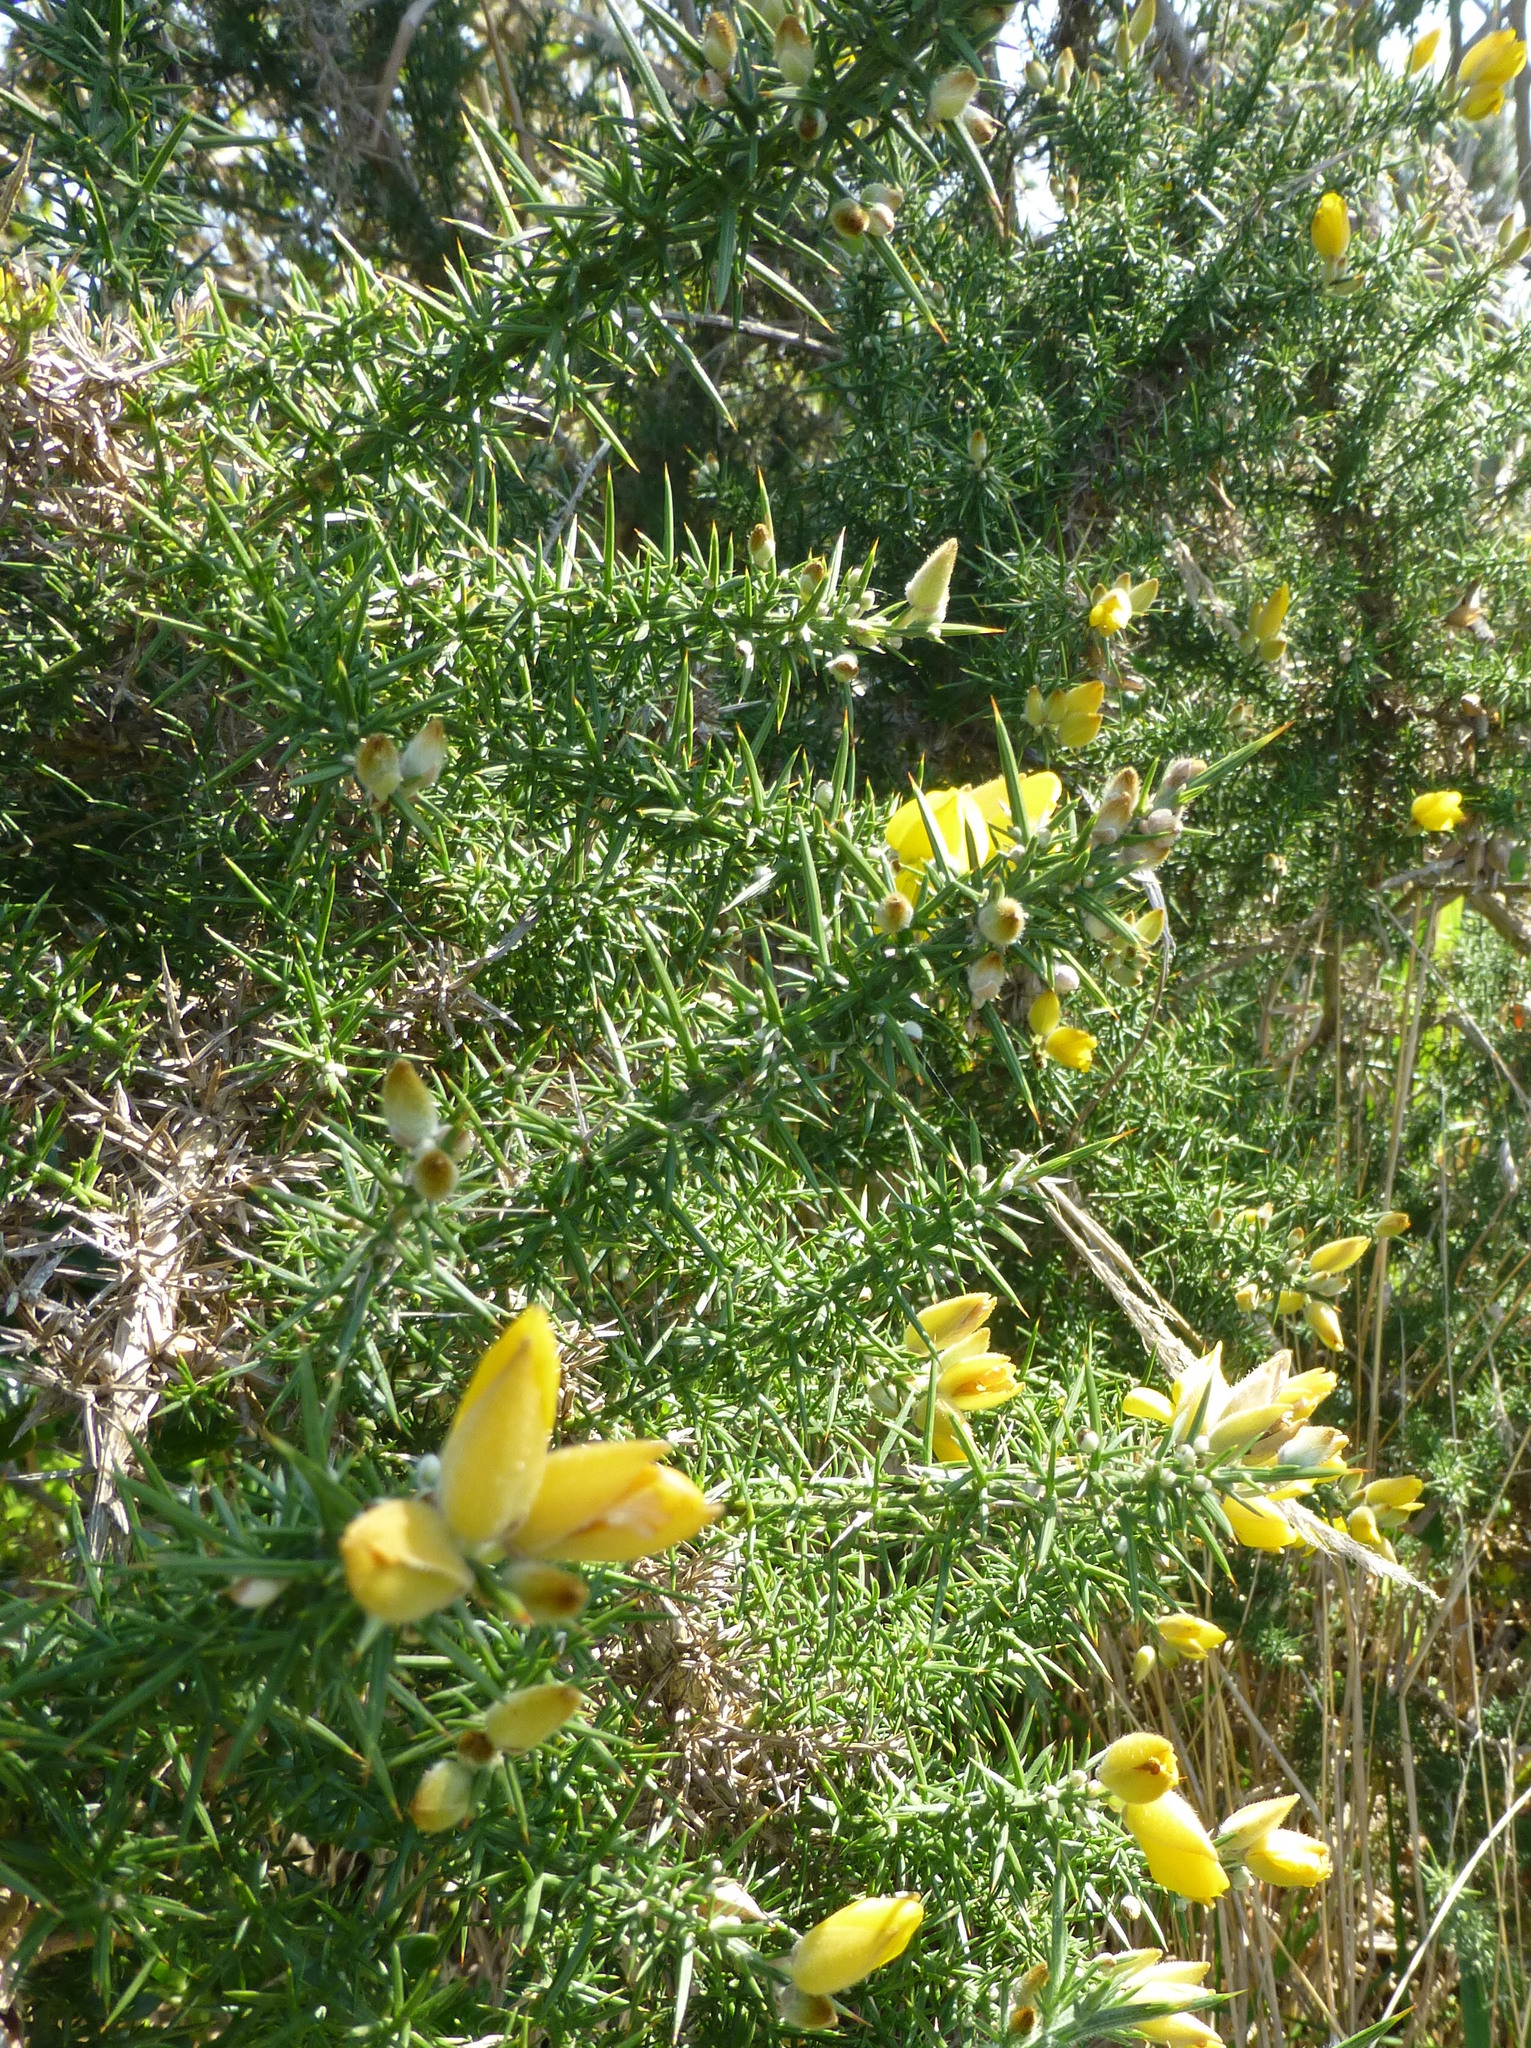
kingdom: Plantae
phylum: Tracheophyta
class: Magnoliopsida
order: Fabales
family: Fabaceae
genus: Ulex
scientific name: Ulex europaeus
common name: Common gorse
